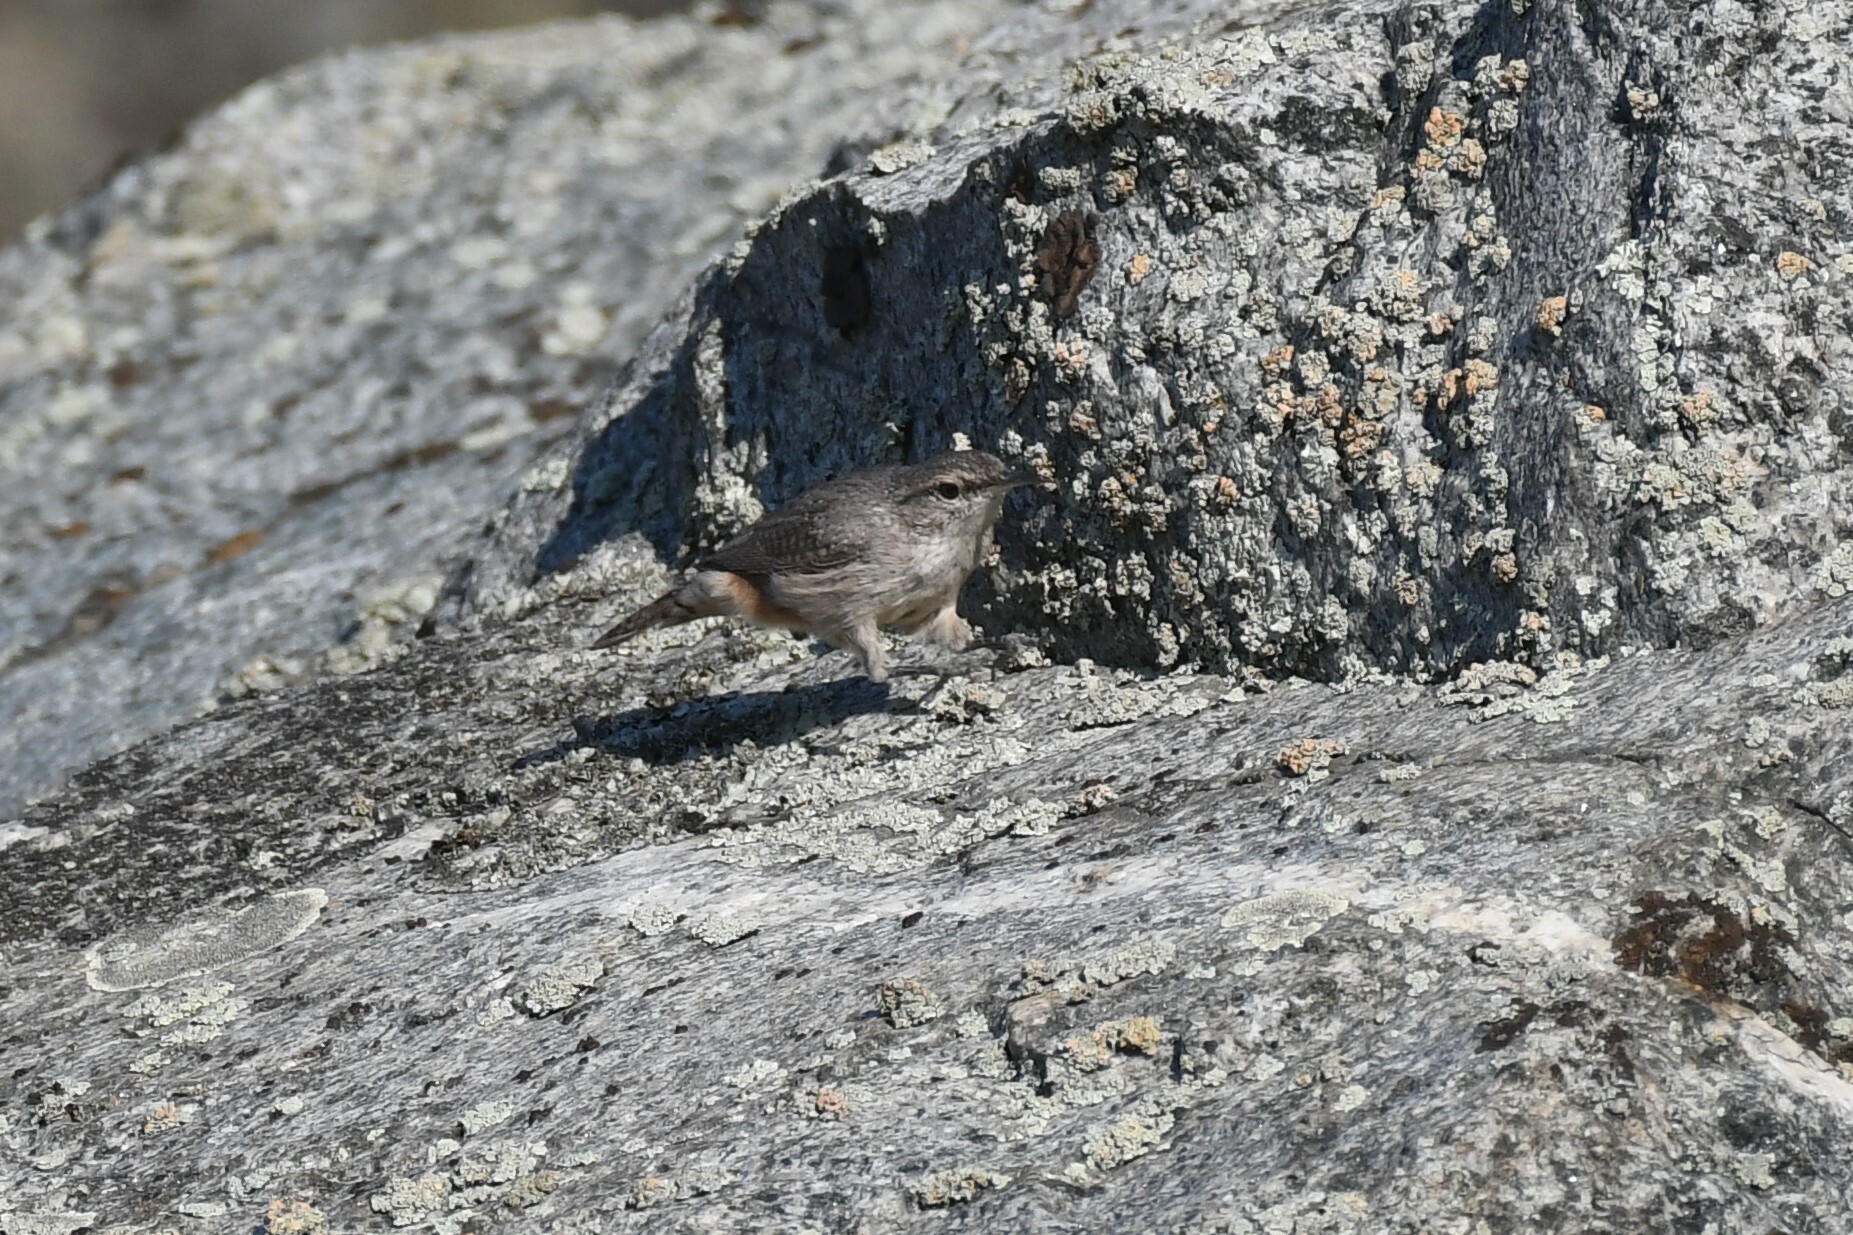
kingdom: Animalia
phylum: Chordata
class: Aves
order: Passeriformes
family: Troglodytidae
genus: Salpinctes
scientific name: Salpinctes obsoletus
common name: Rock wren
